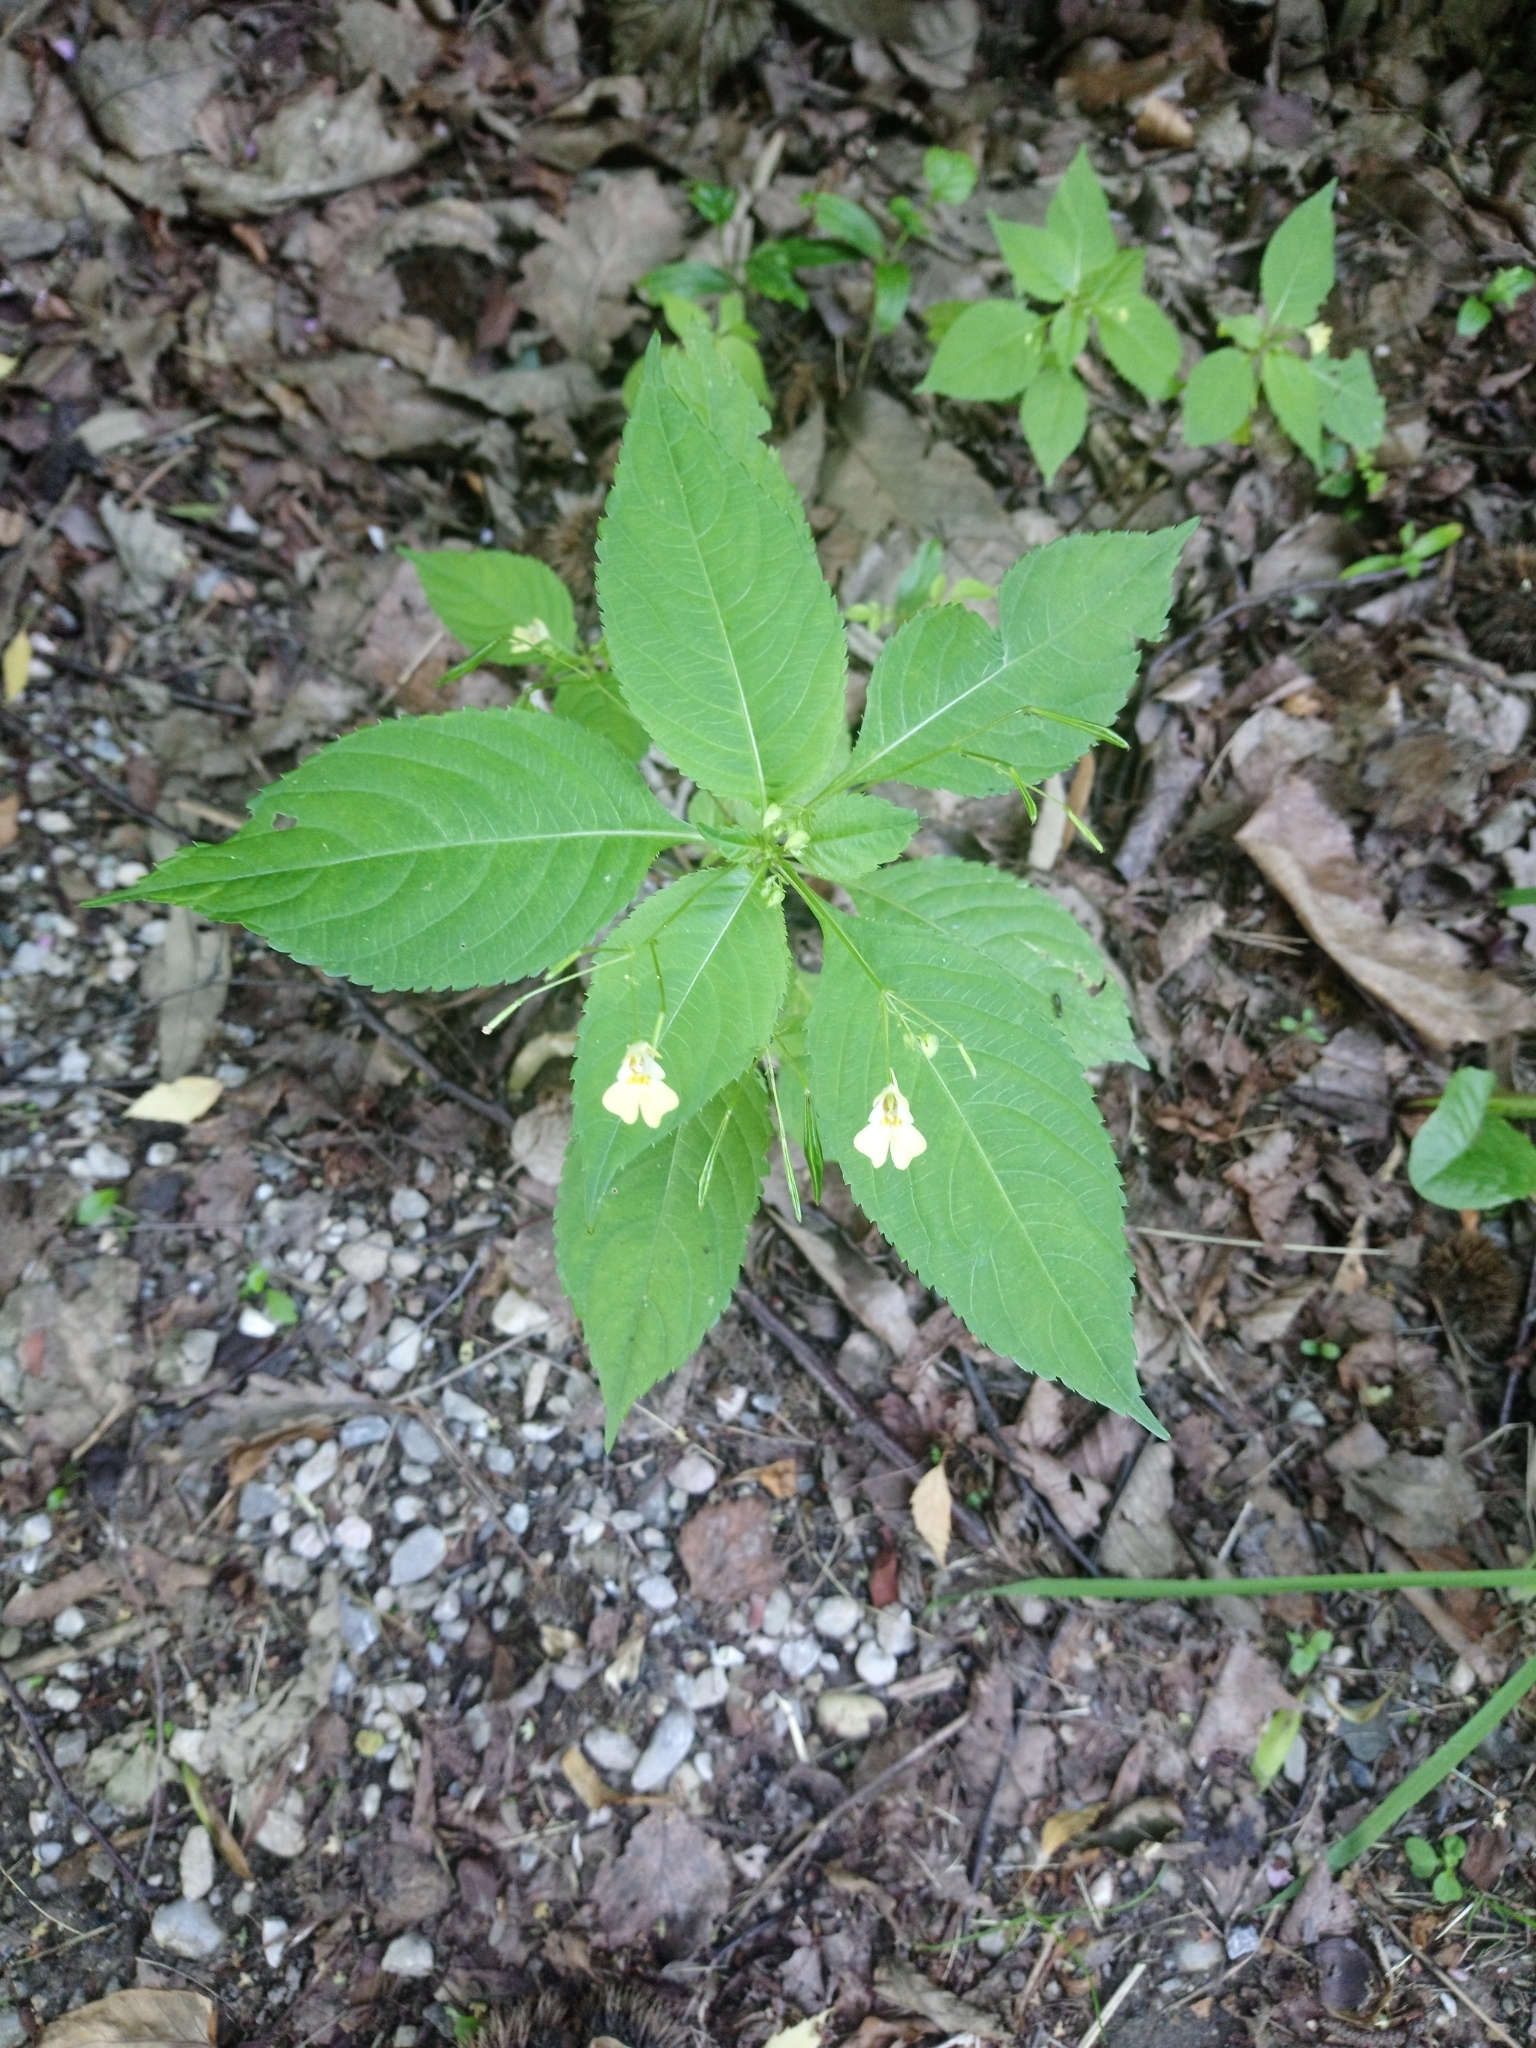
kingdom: Plantae
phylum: Tracheophyta
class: Magnoliopsida
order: Ericales
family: Balsaminaceae
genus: Impatiens
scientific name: Impatiens parviflora
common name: Small balsam
